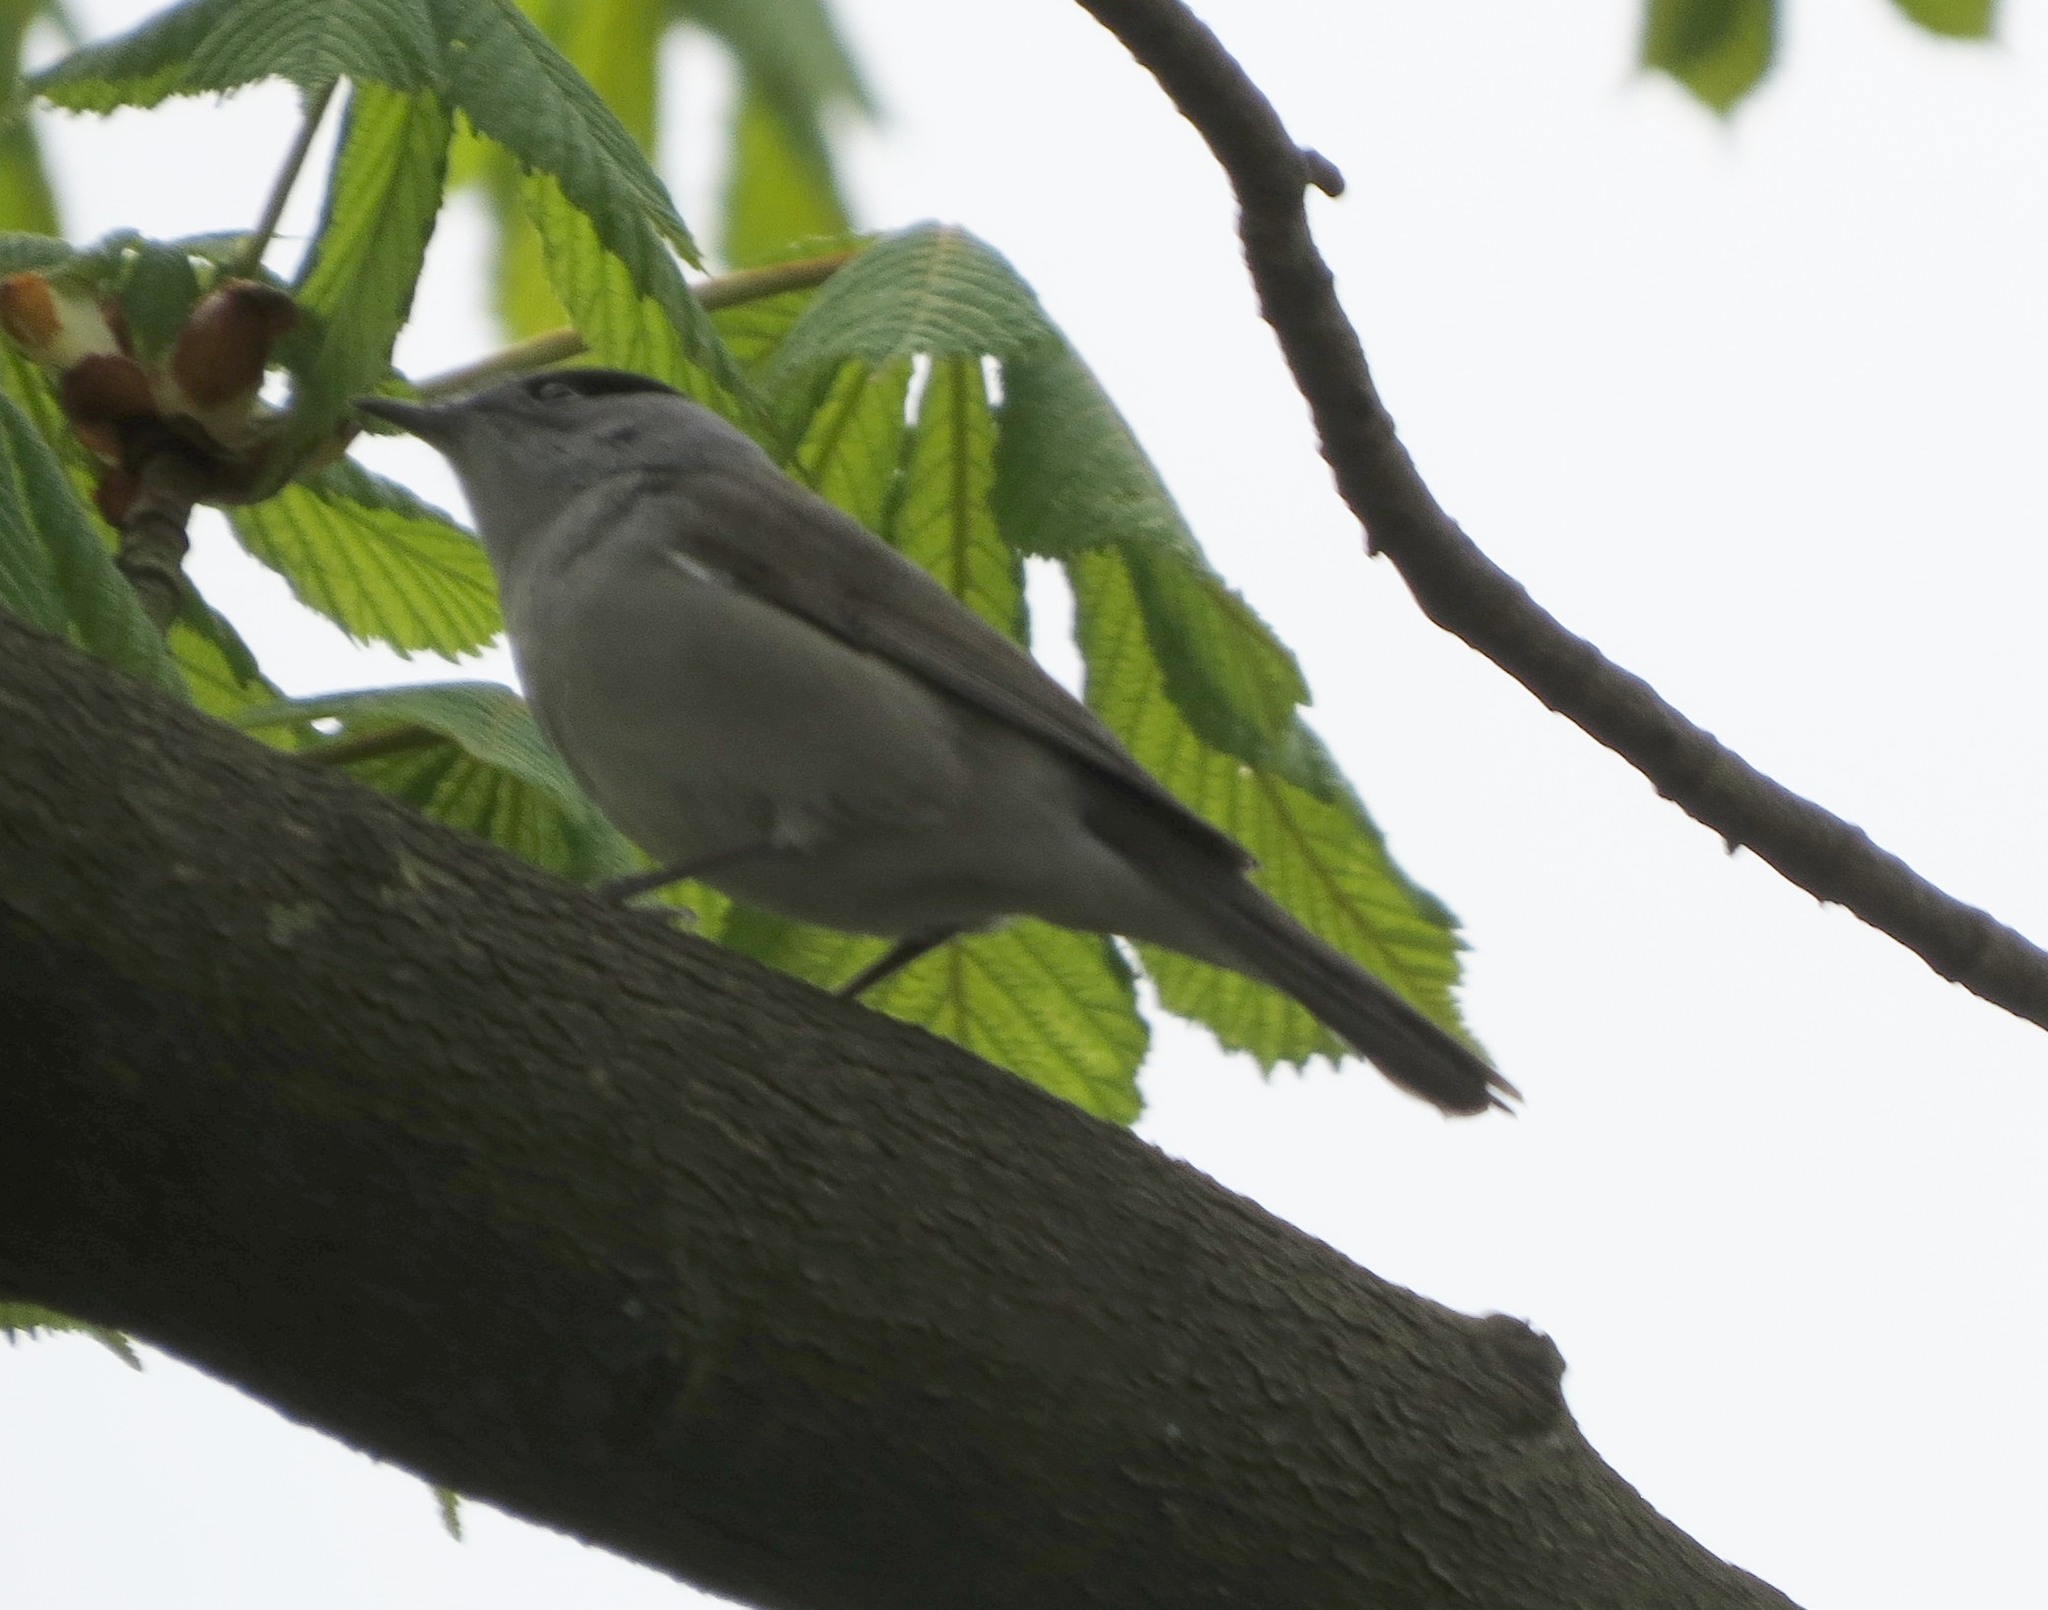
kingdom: Animalia
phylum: Chordata
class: Aves
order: Passeriformes
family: Sylviidae
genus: Sylvia
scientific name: Sylvia atricapilla
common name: Eurasian blackcap
